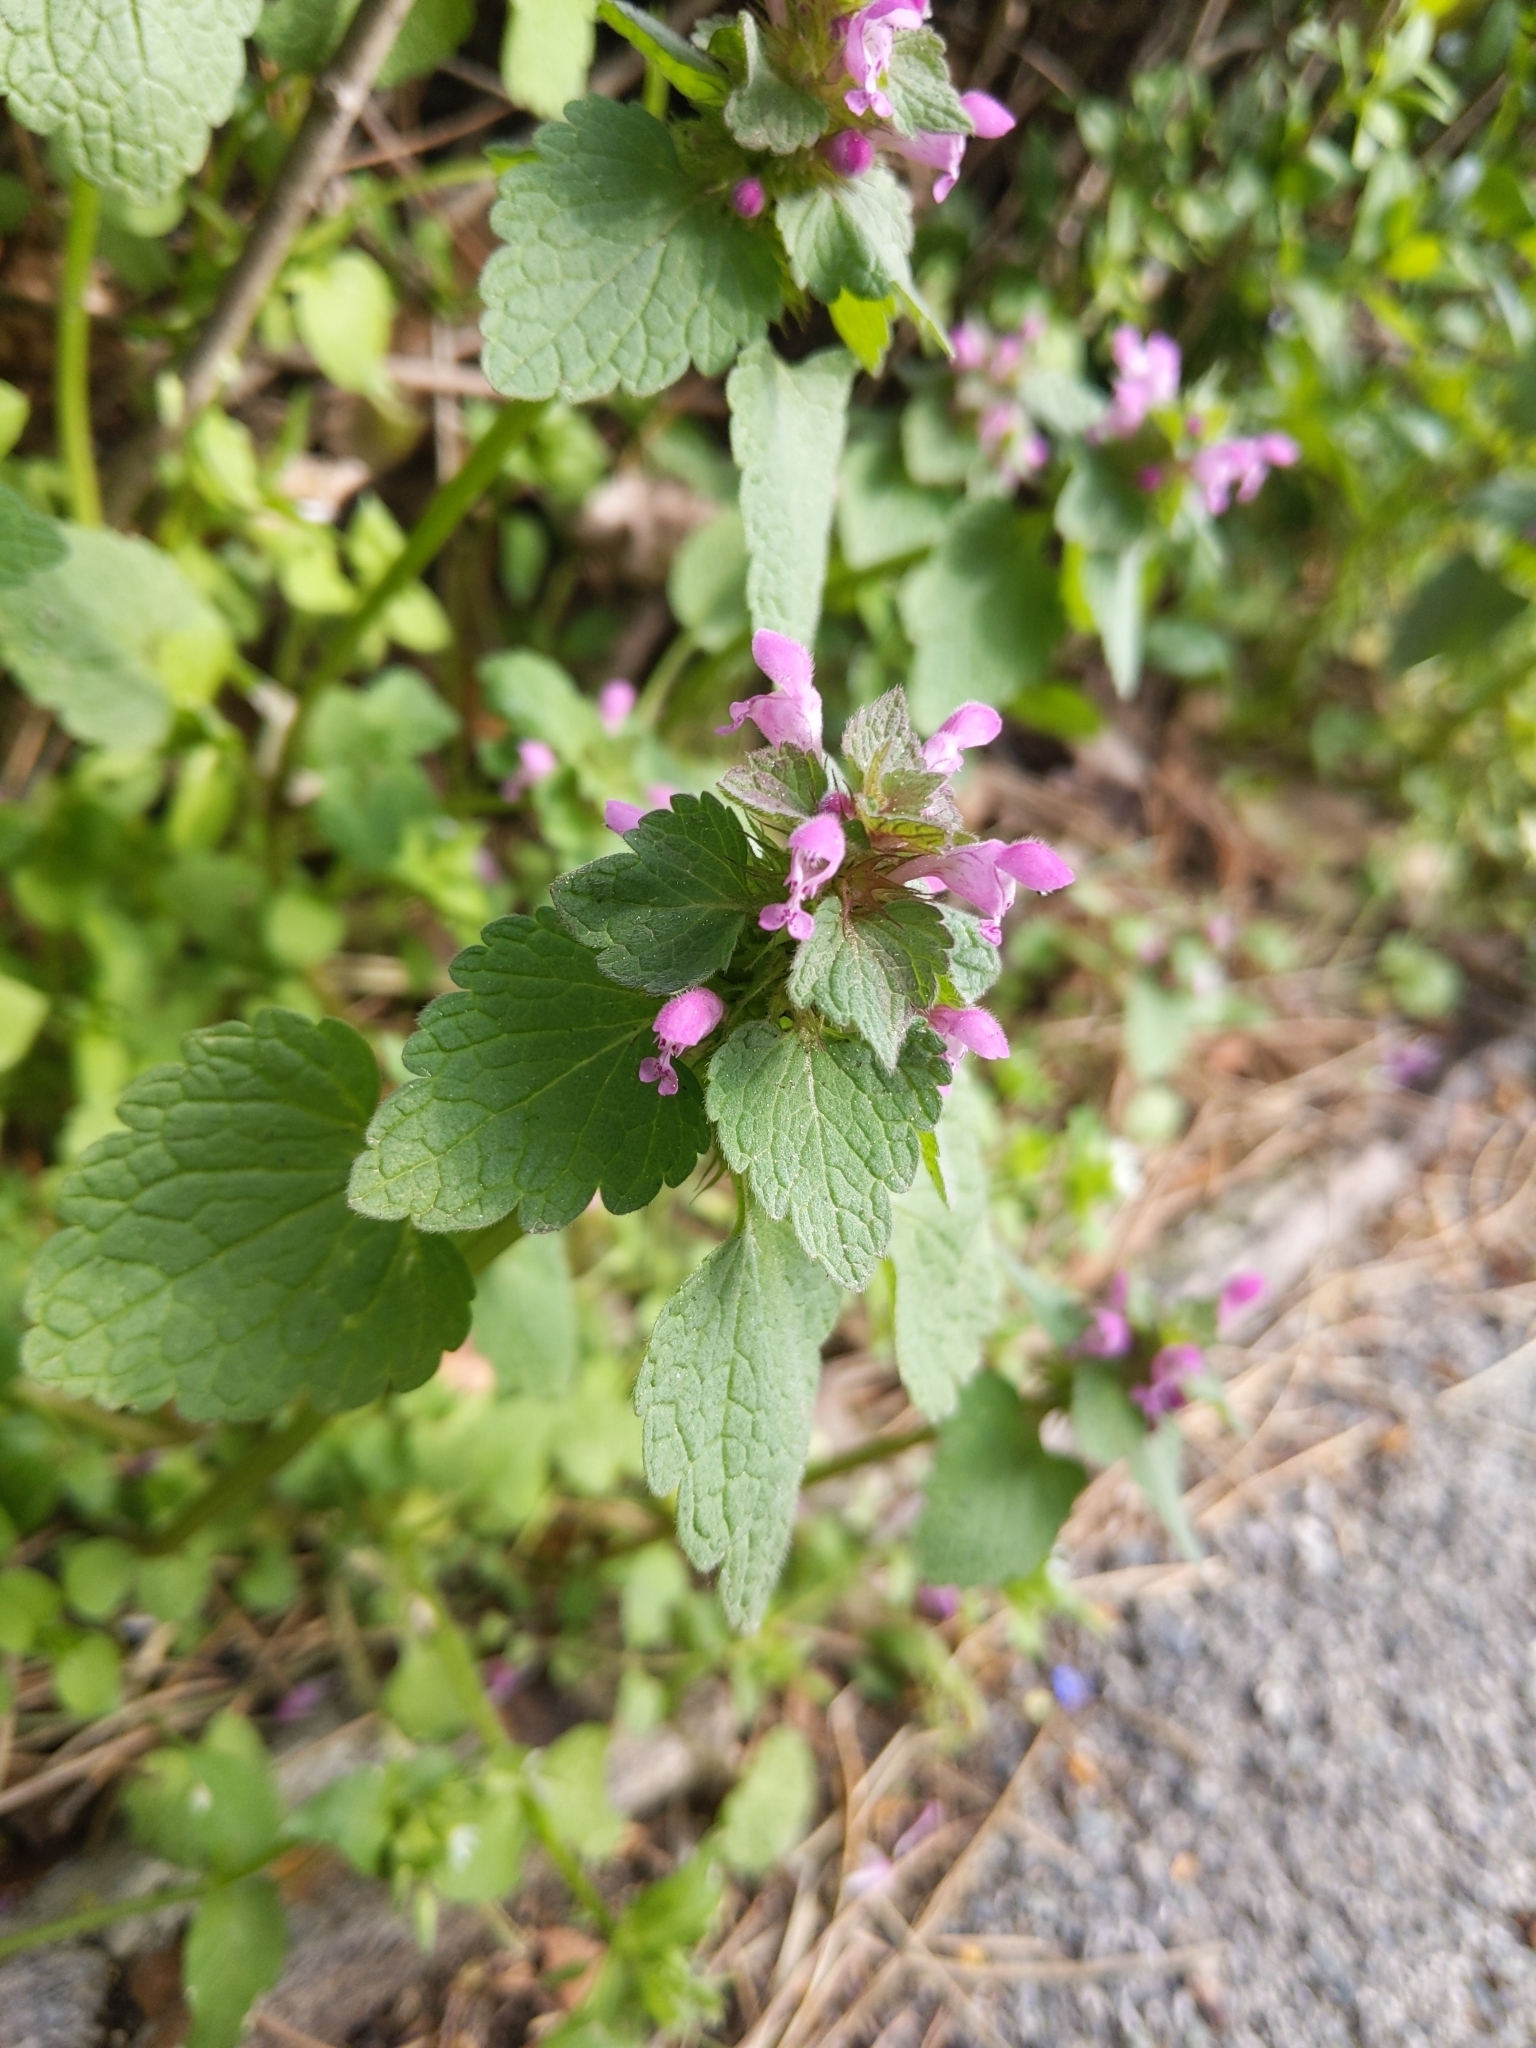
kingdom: Plantae
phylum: Tracheophyta
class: Magnoliopsida
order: Lamiales
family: Lamiaceae
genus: Lamium
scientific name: Lamium purpureum
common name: Red dead-nettle
